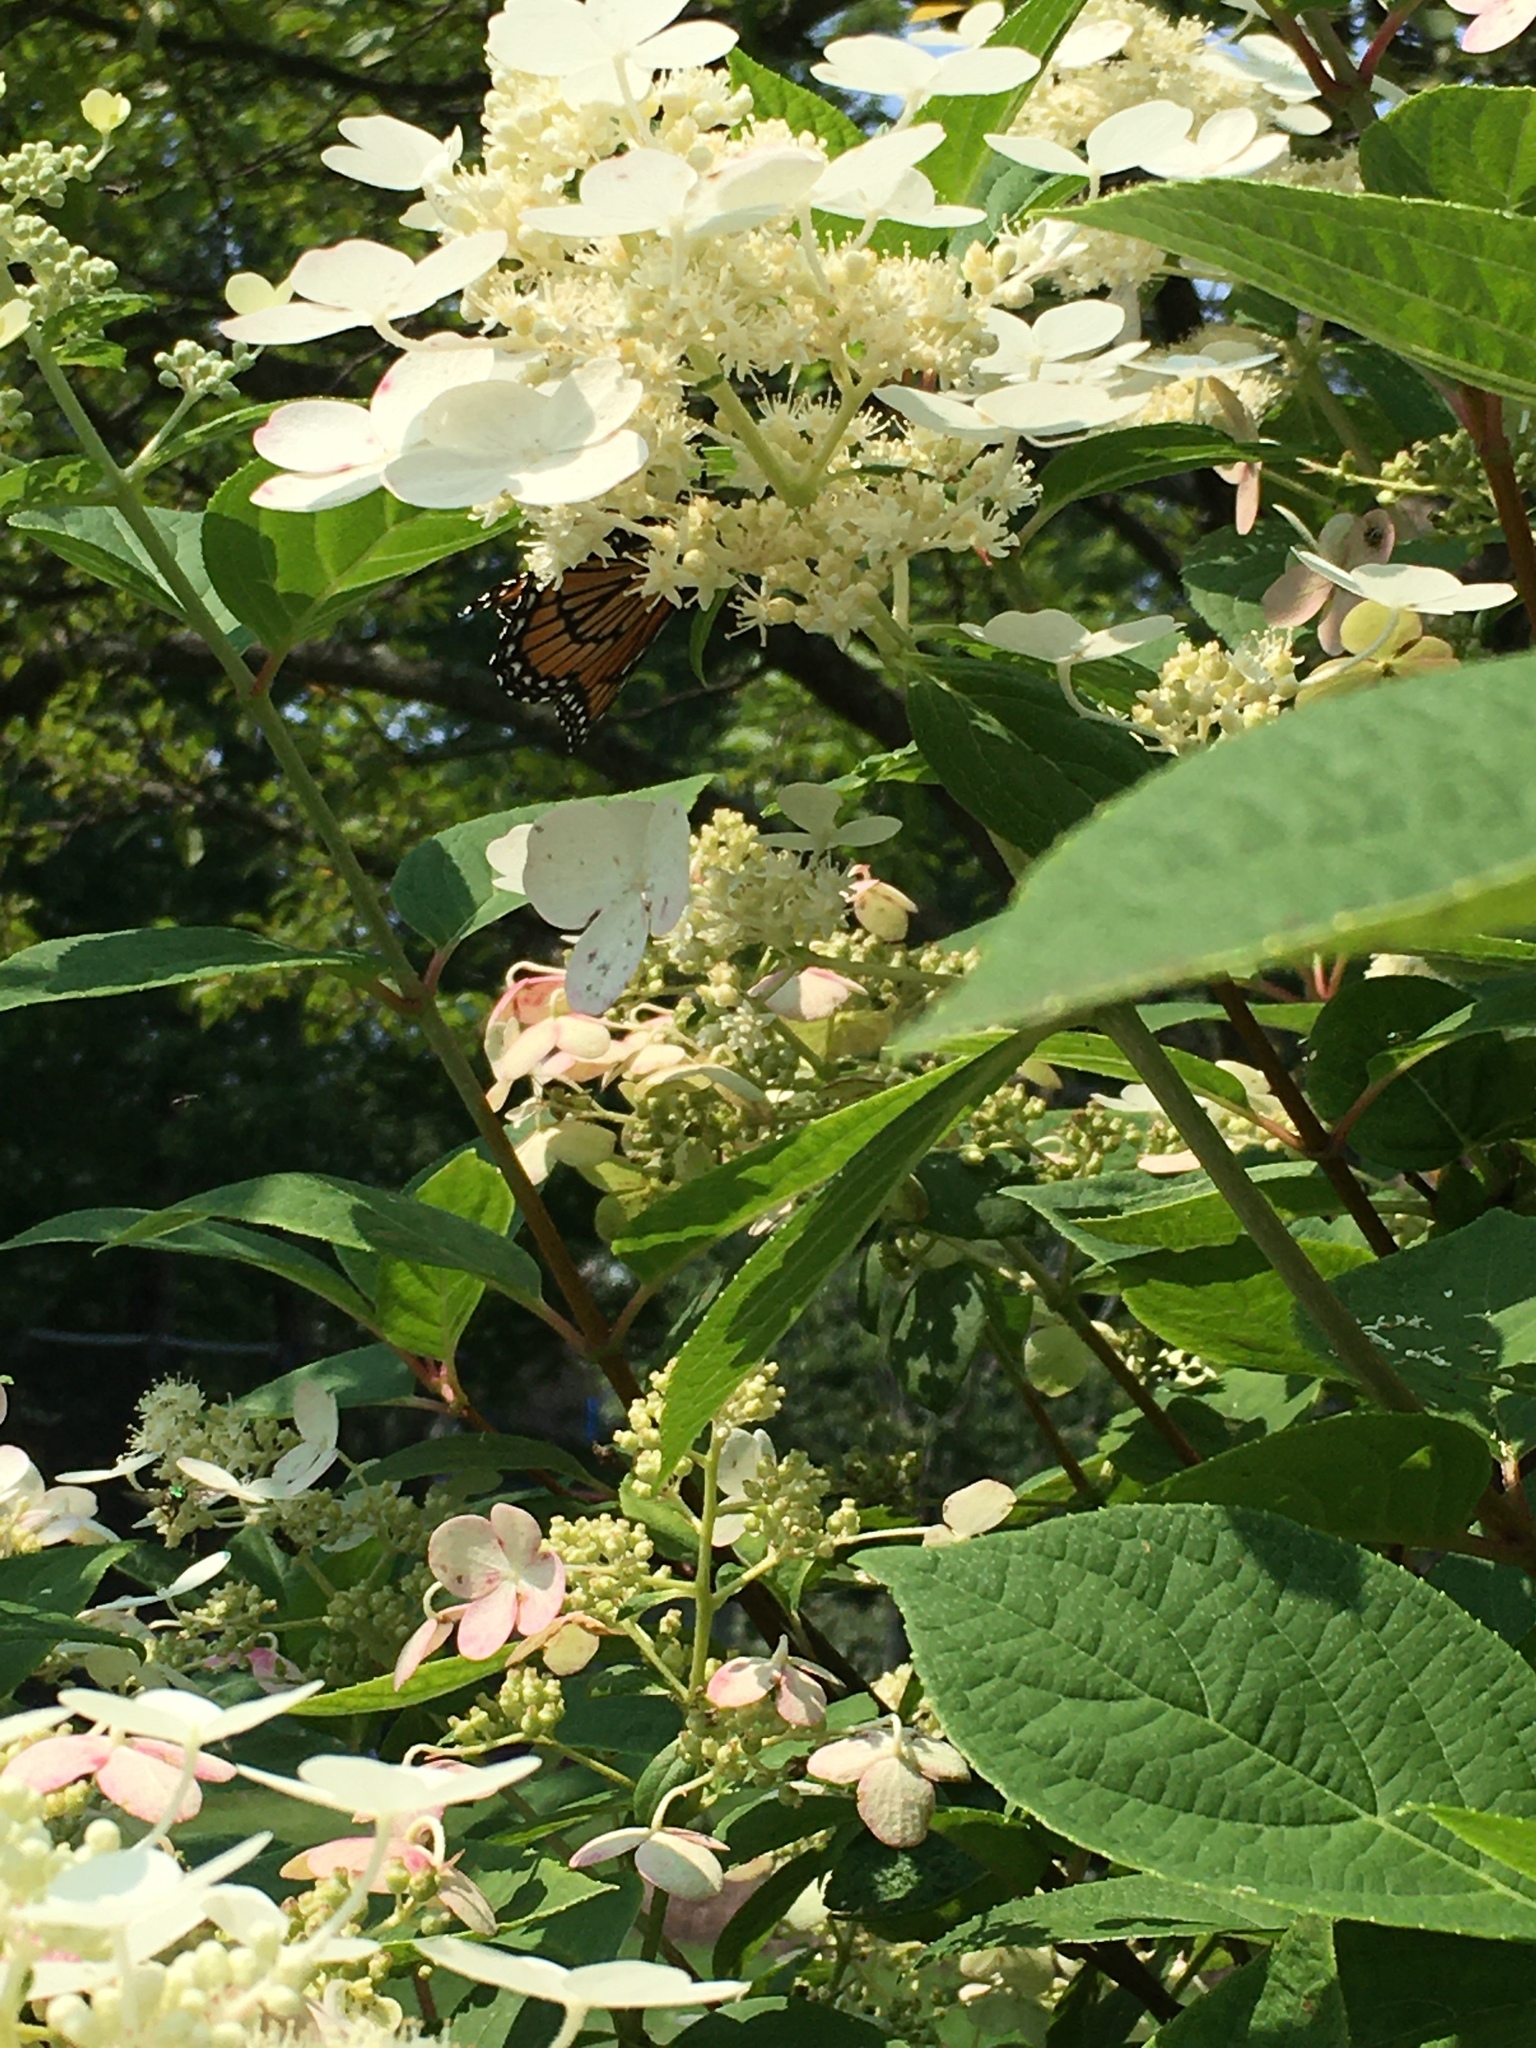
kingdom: Animalia
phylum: Arthropoda
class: Insecta
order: Lepidoptera
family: Nymphalidae
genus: Limenitis
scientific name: Limenitis archippus
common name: Viceroy
